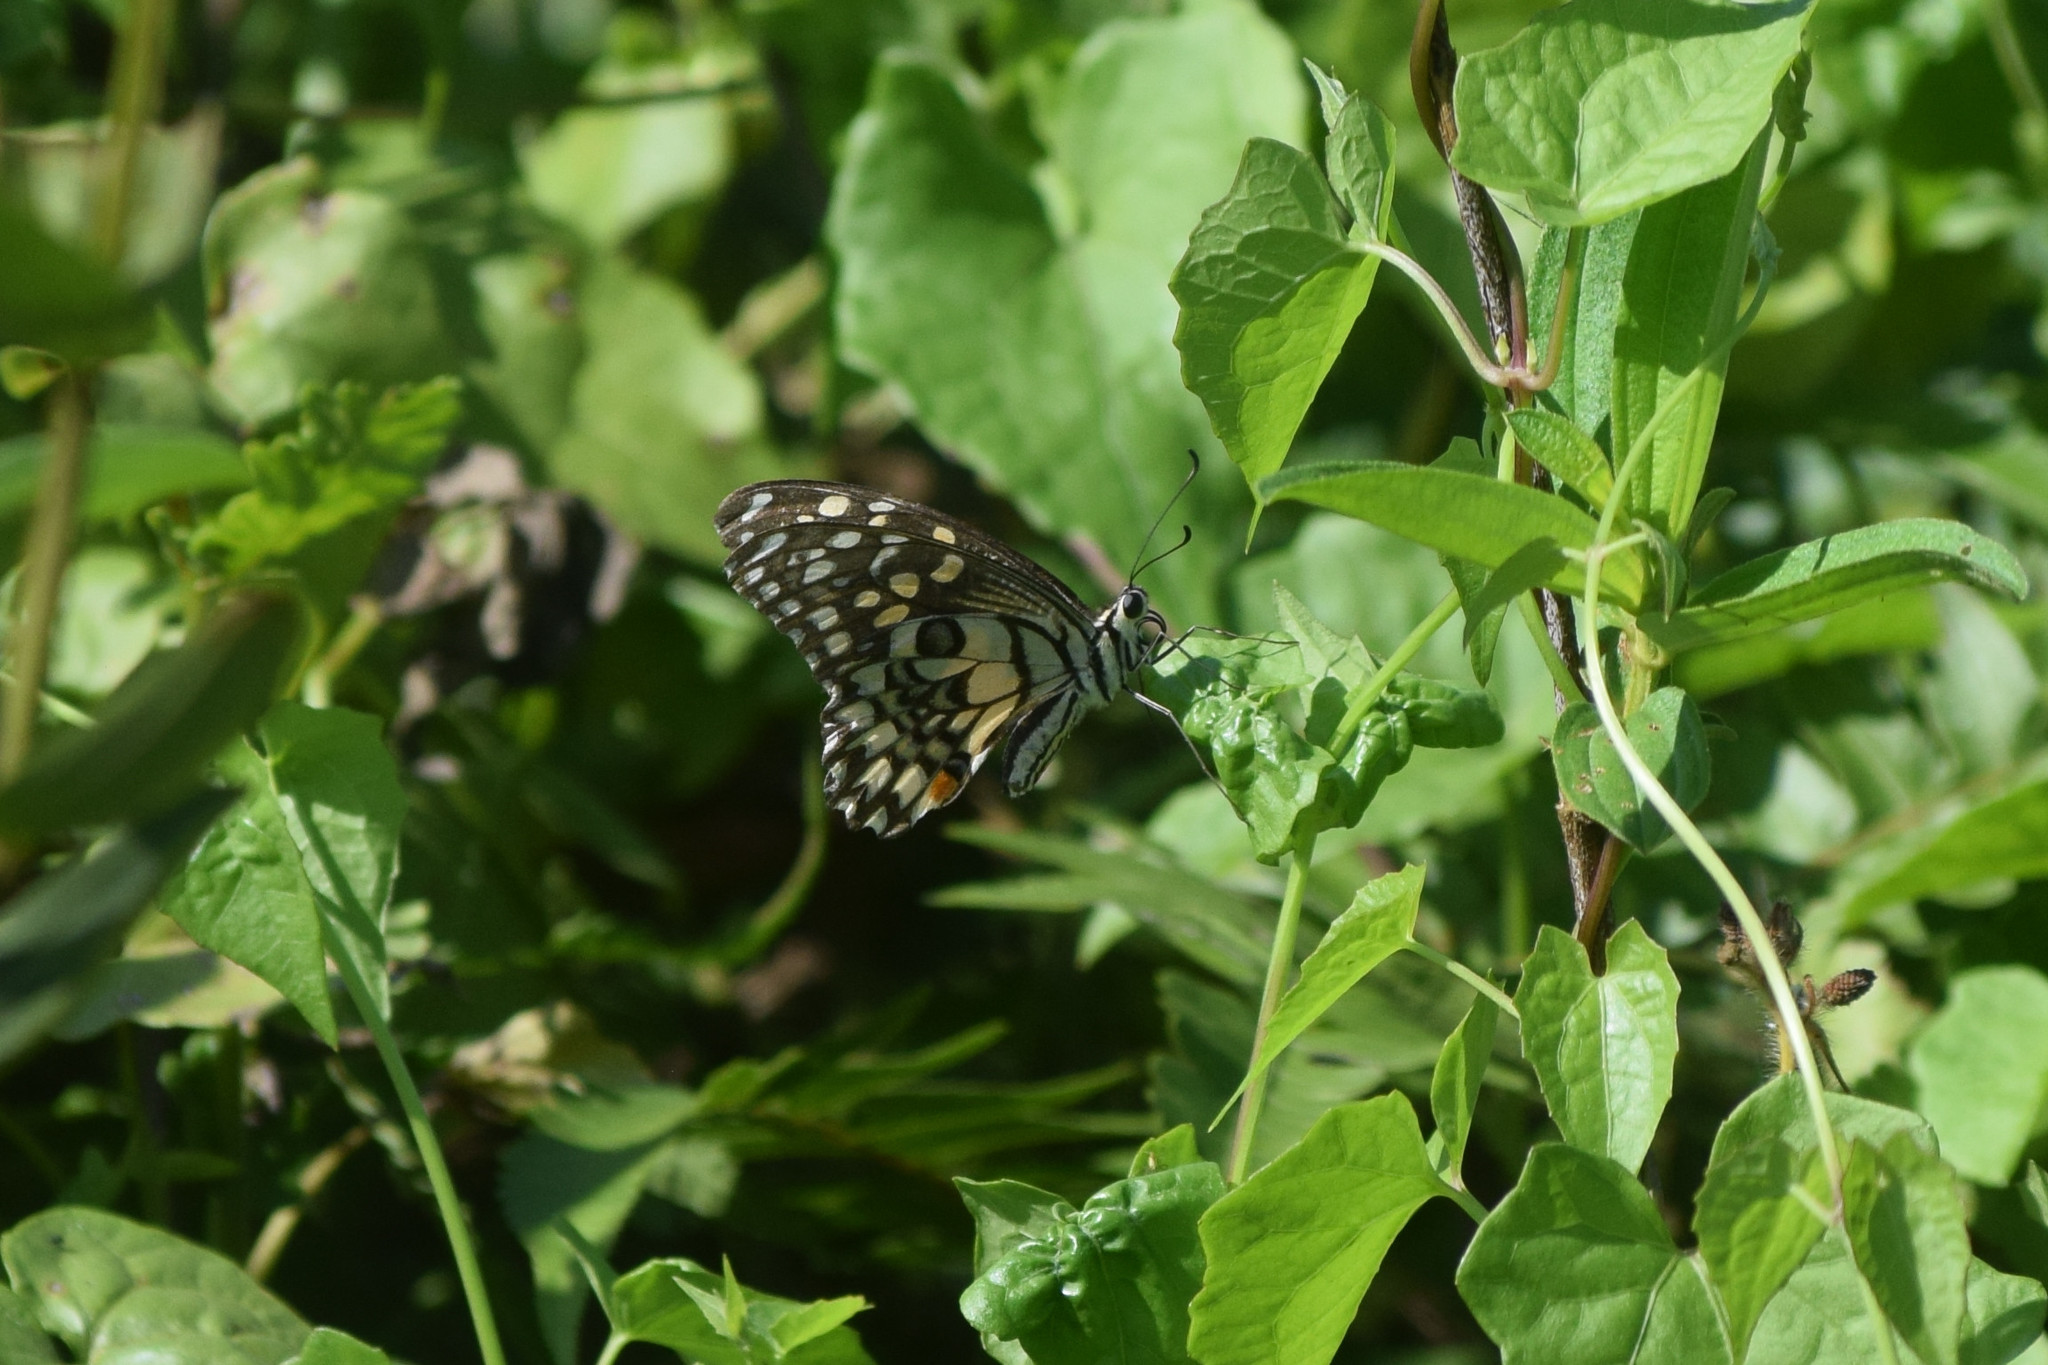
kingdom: Animalia
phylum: Arthropoda
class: Insecta
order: Lepidoptera
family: Papilionidae
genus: Papilio
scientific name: Papilio demoleus
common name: Lime butterfly
